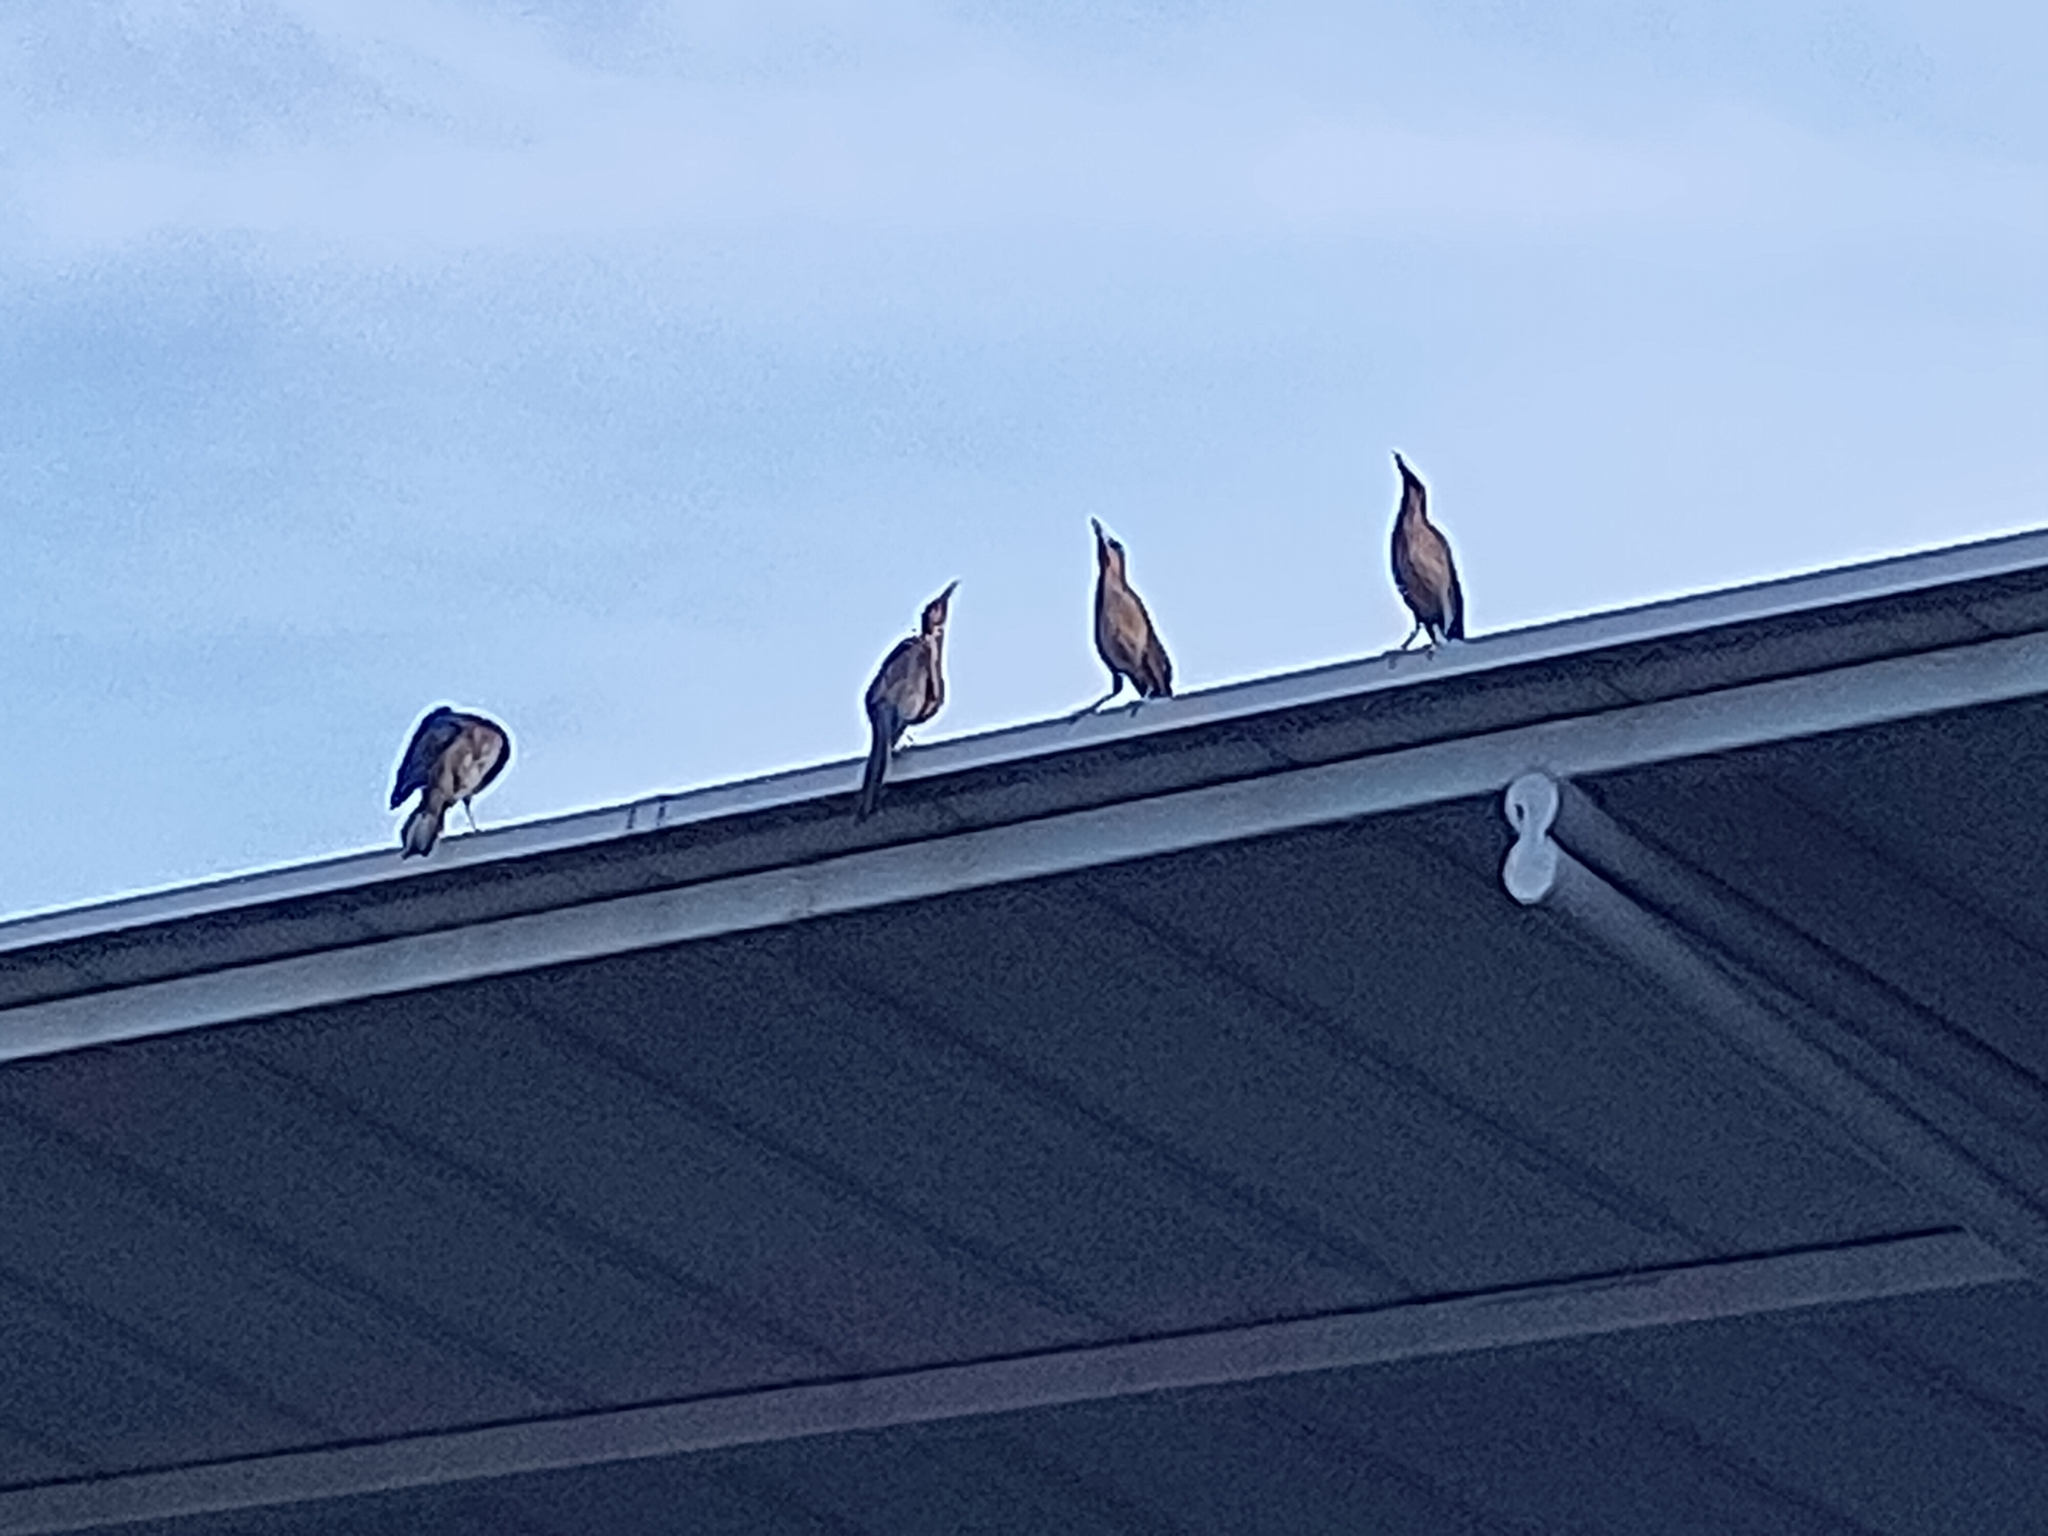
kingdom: Animalia
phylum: Chordata
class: Aves
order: Passeriformes
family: Icteridae
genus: Quiscalus
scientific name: Quiscalus mexicanus
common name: Great-tailed grackle
